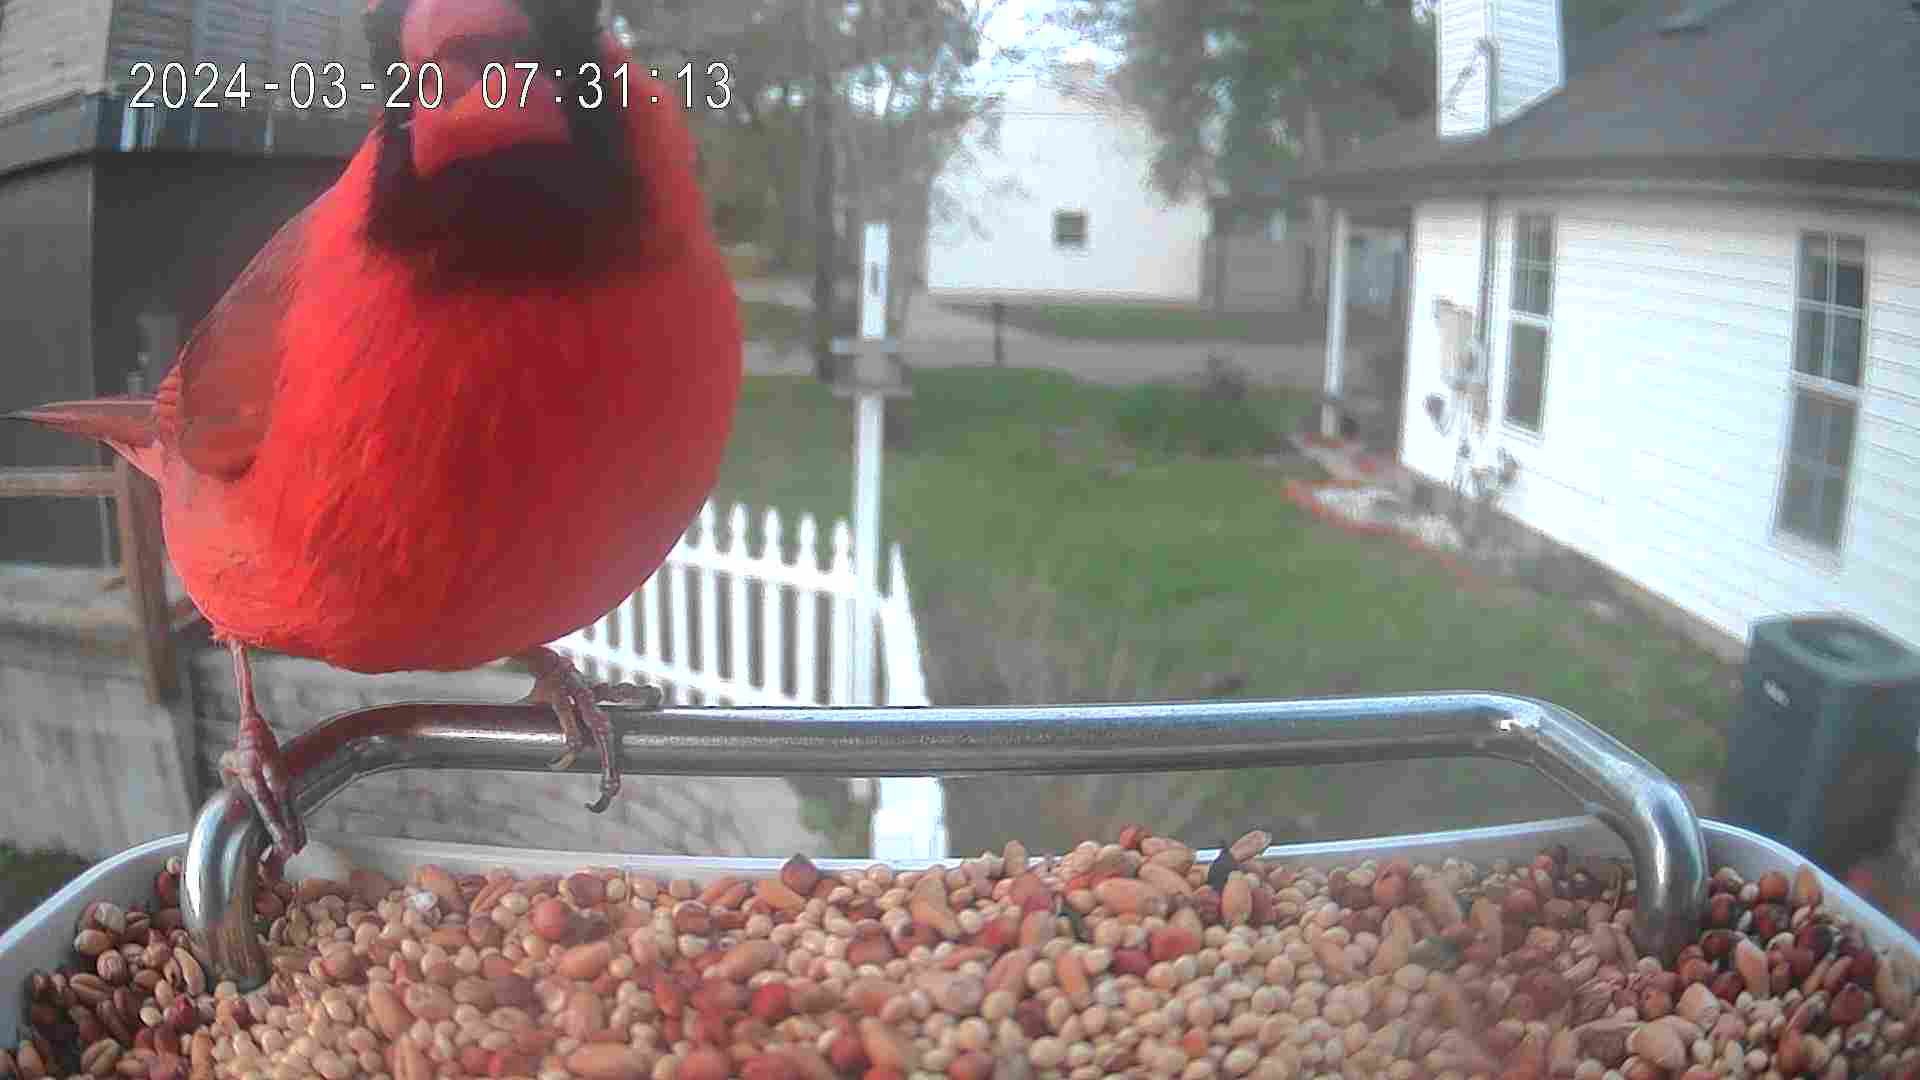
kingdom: Animalia
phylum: Chordata
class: Aves
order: Passeriformes
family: Cardinalidae
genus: Cardinalis
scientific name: Cardinalis cardinalis
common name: Northern cardinal
